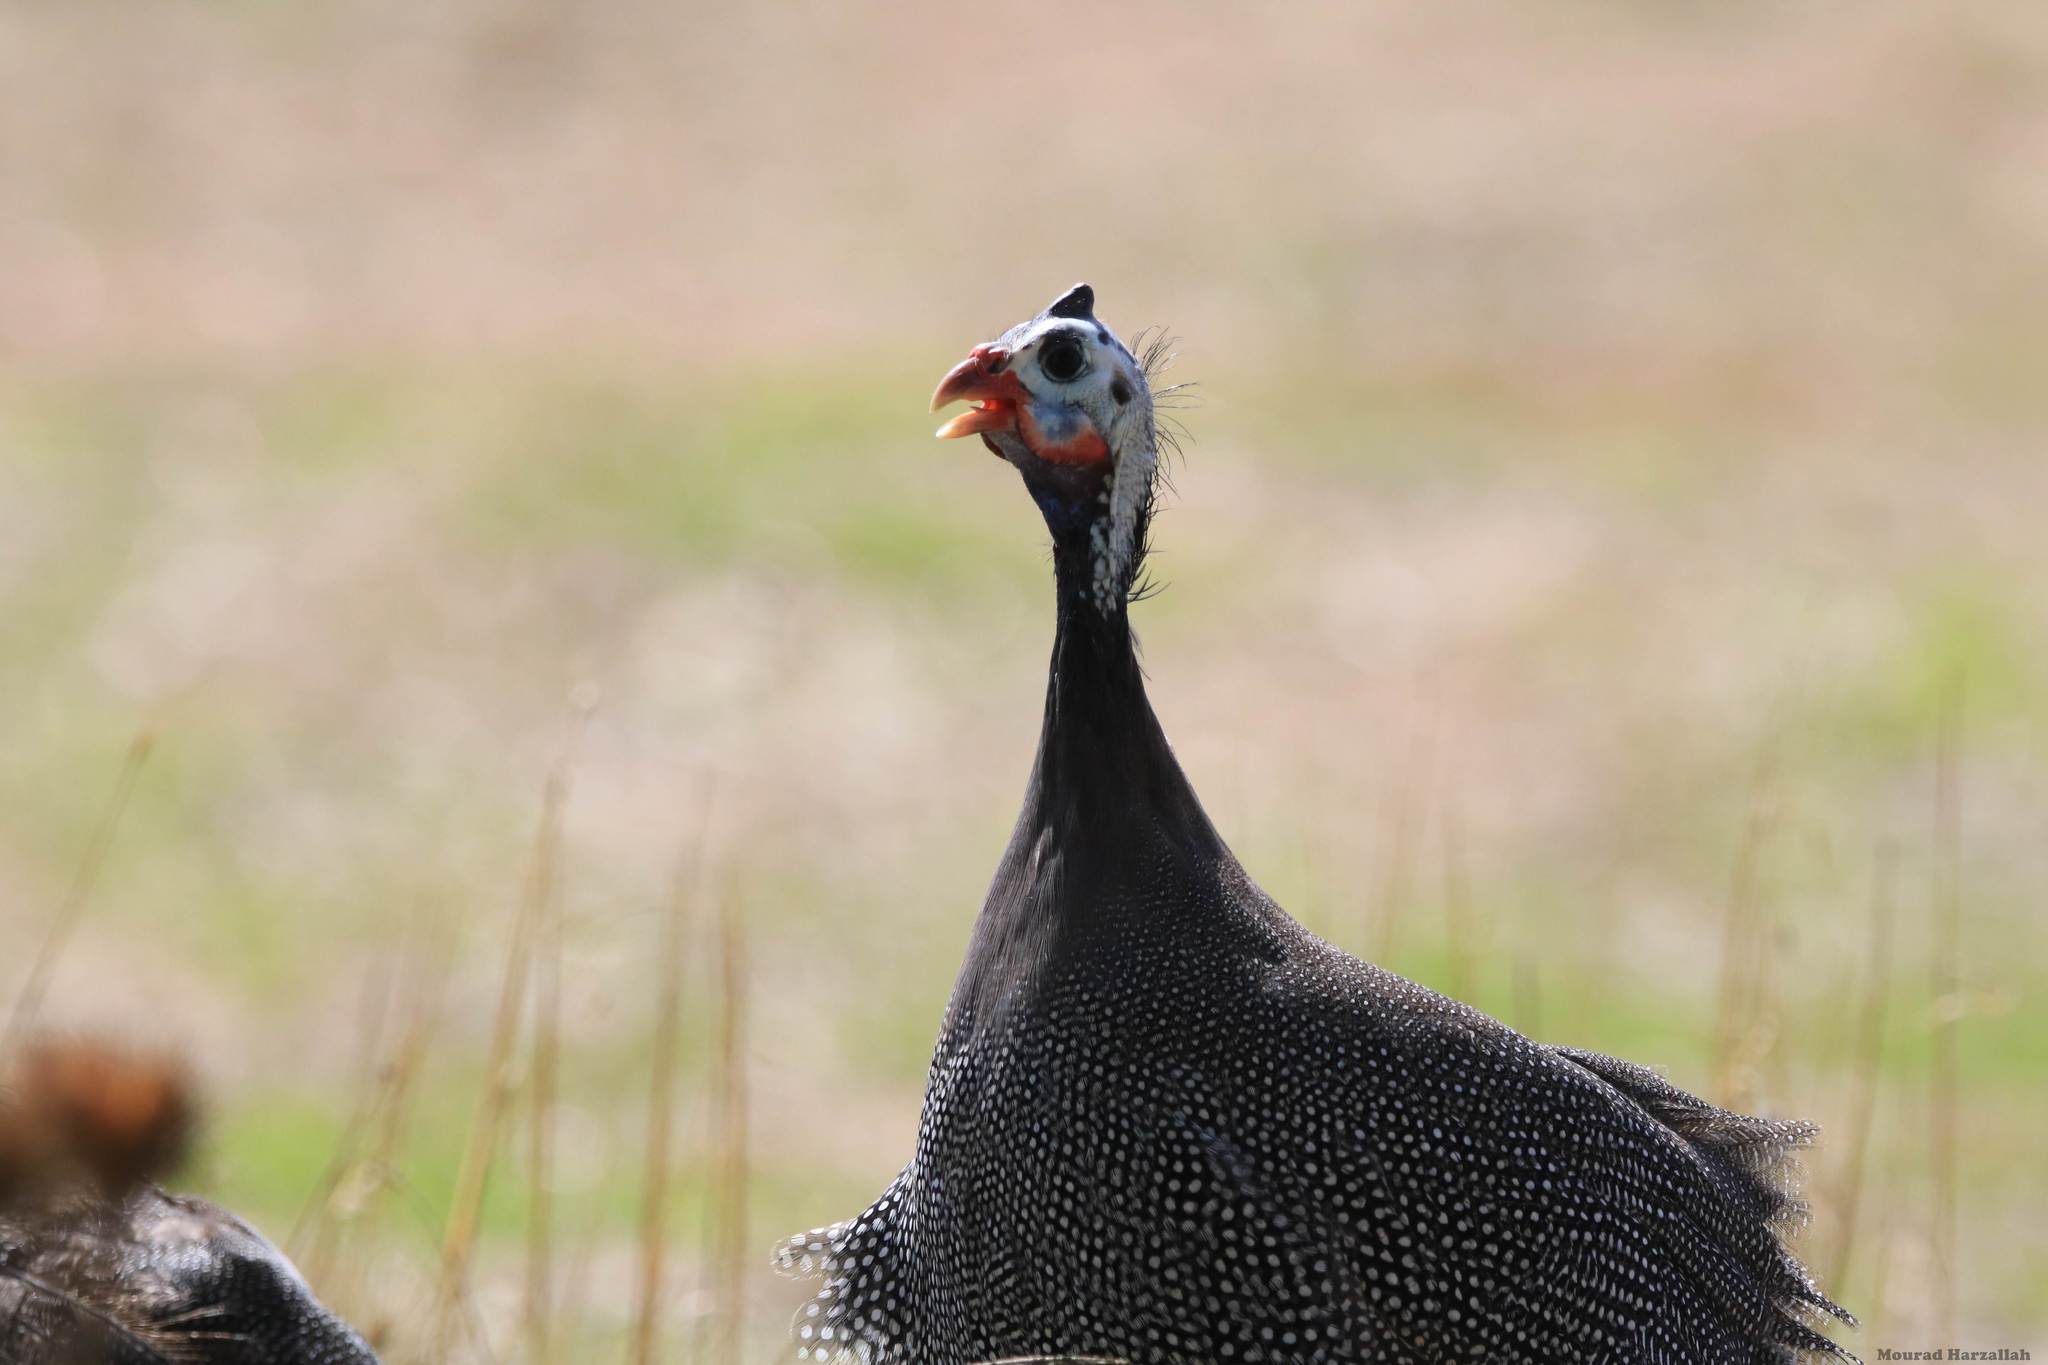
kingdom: Animalia
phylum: Chordata
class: Aves
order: Galliformes
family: Numididae
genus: Numida
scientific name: Numida meleagris
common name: Helmeted guineafowl
